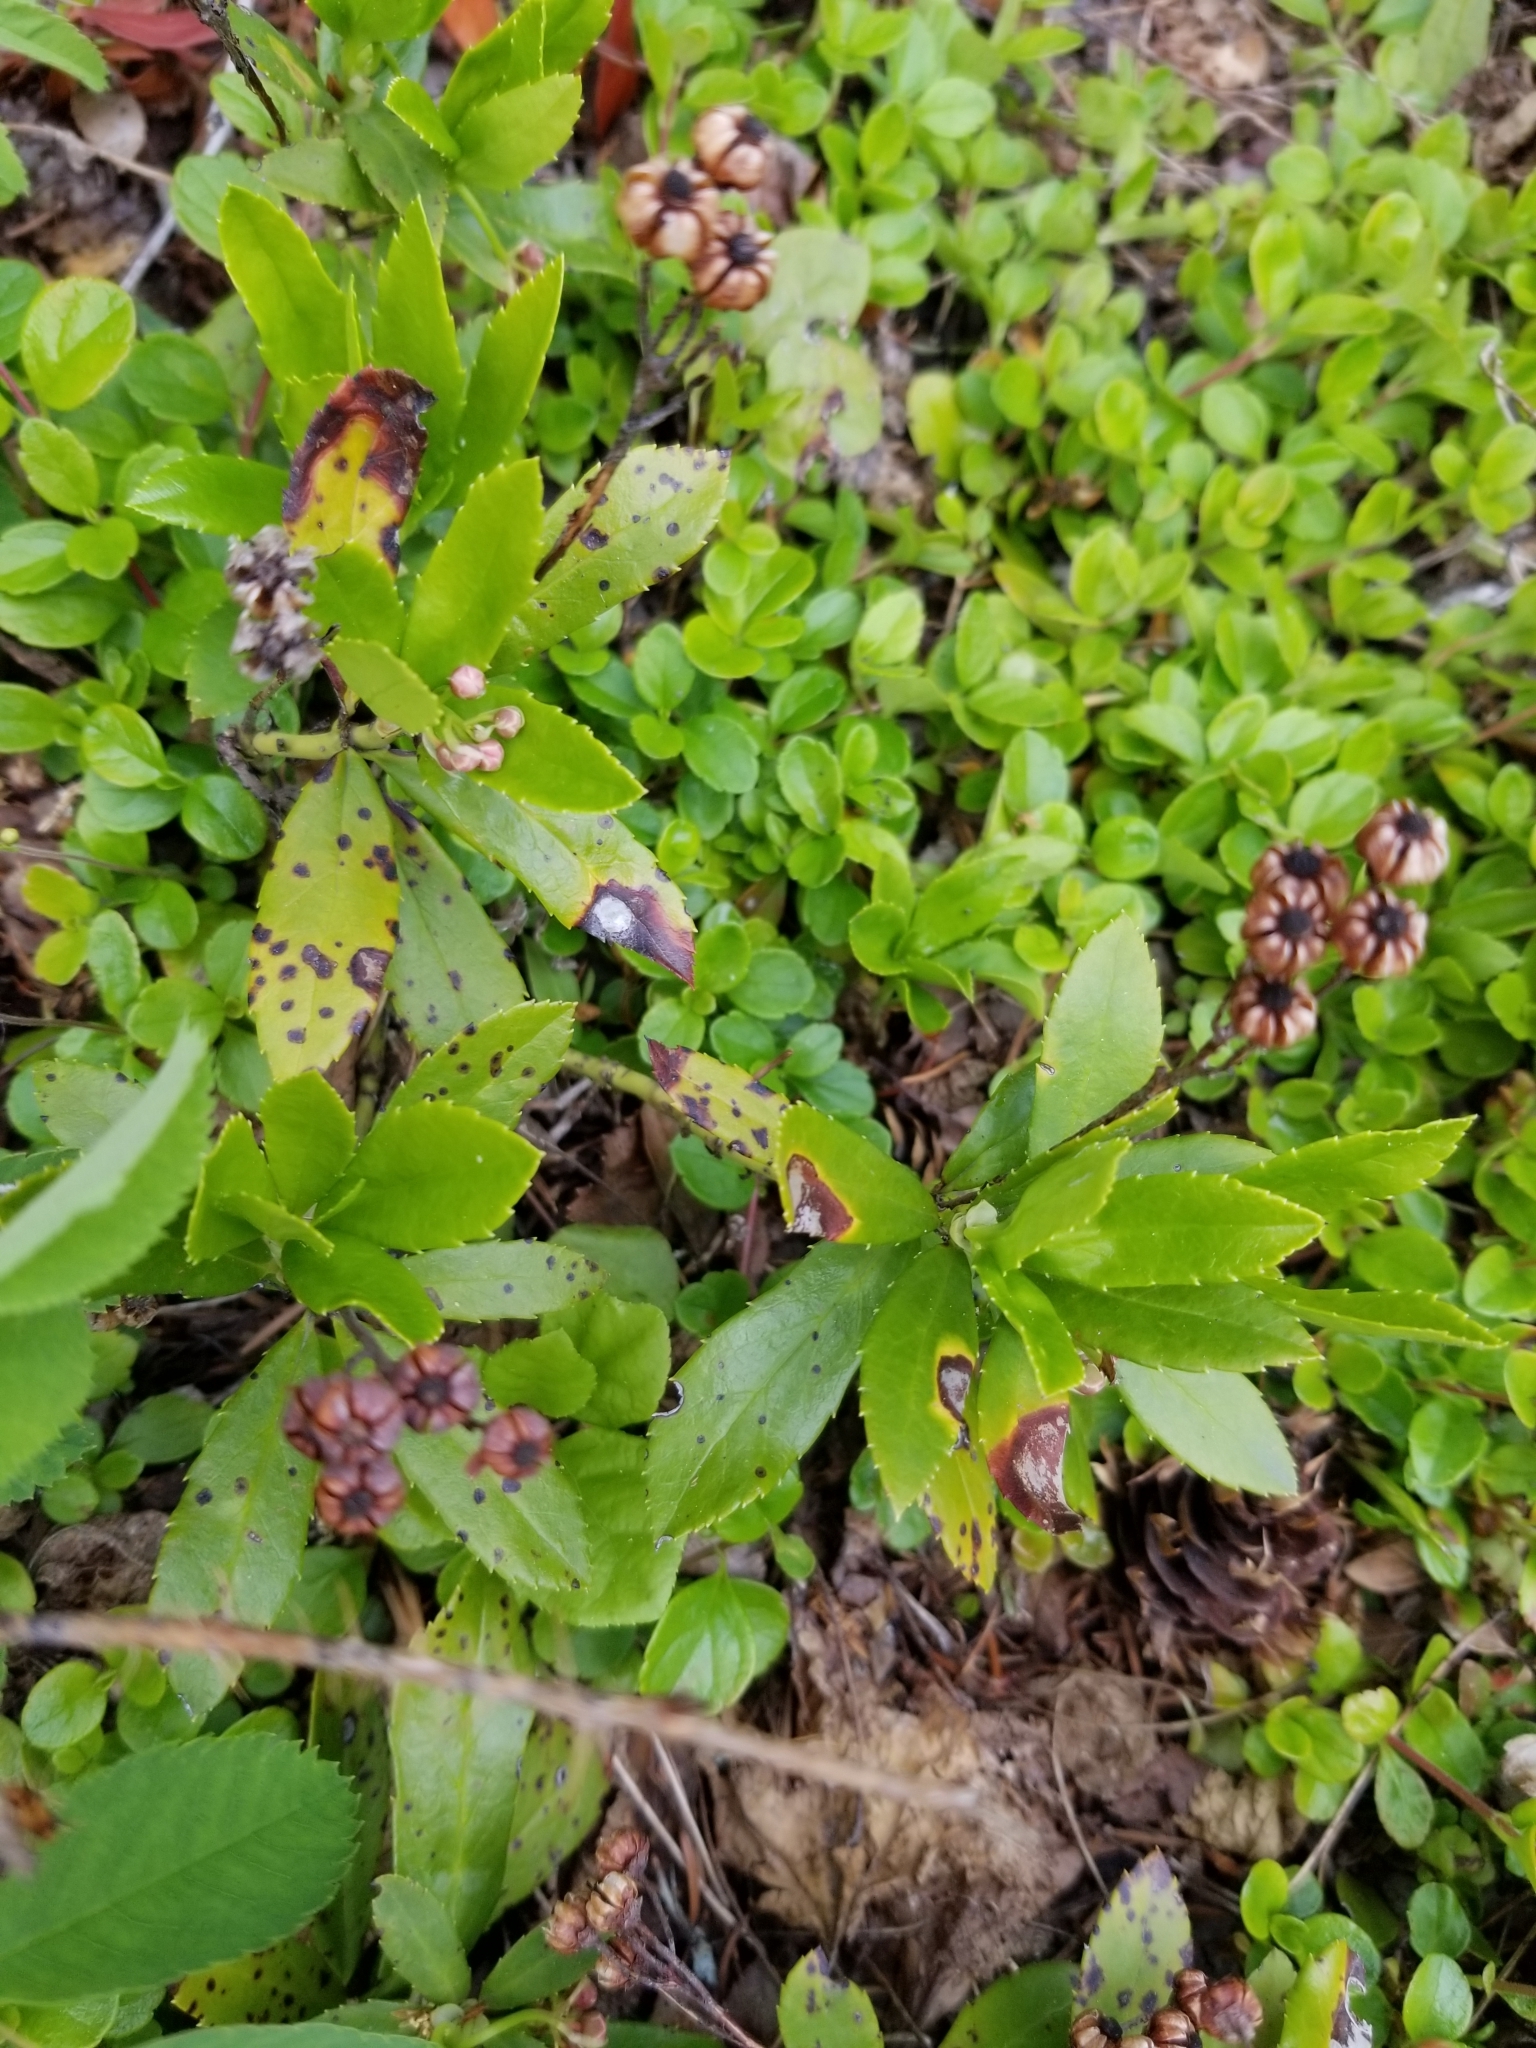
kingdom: Plantae
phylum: Tracheophyta
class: Magnoliopsida
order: Ericales
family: Ericaceae
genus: Chimaphila
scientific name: Chimaphila umbellata
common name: Pipsissewa
